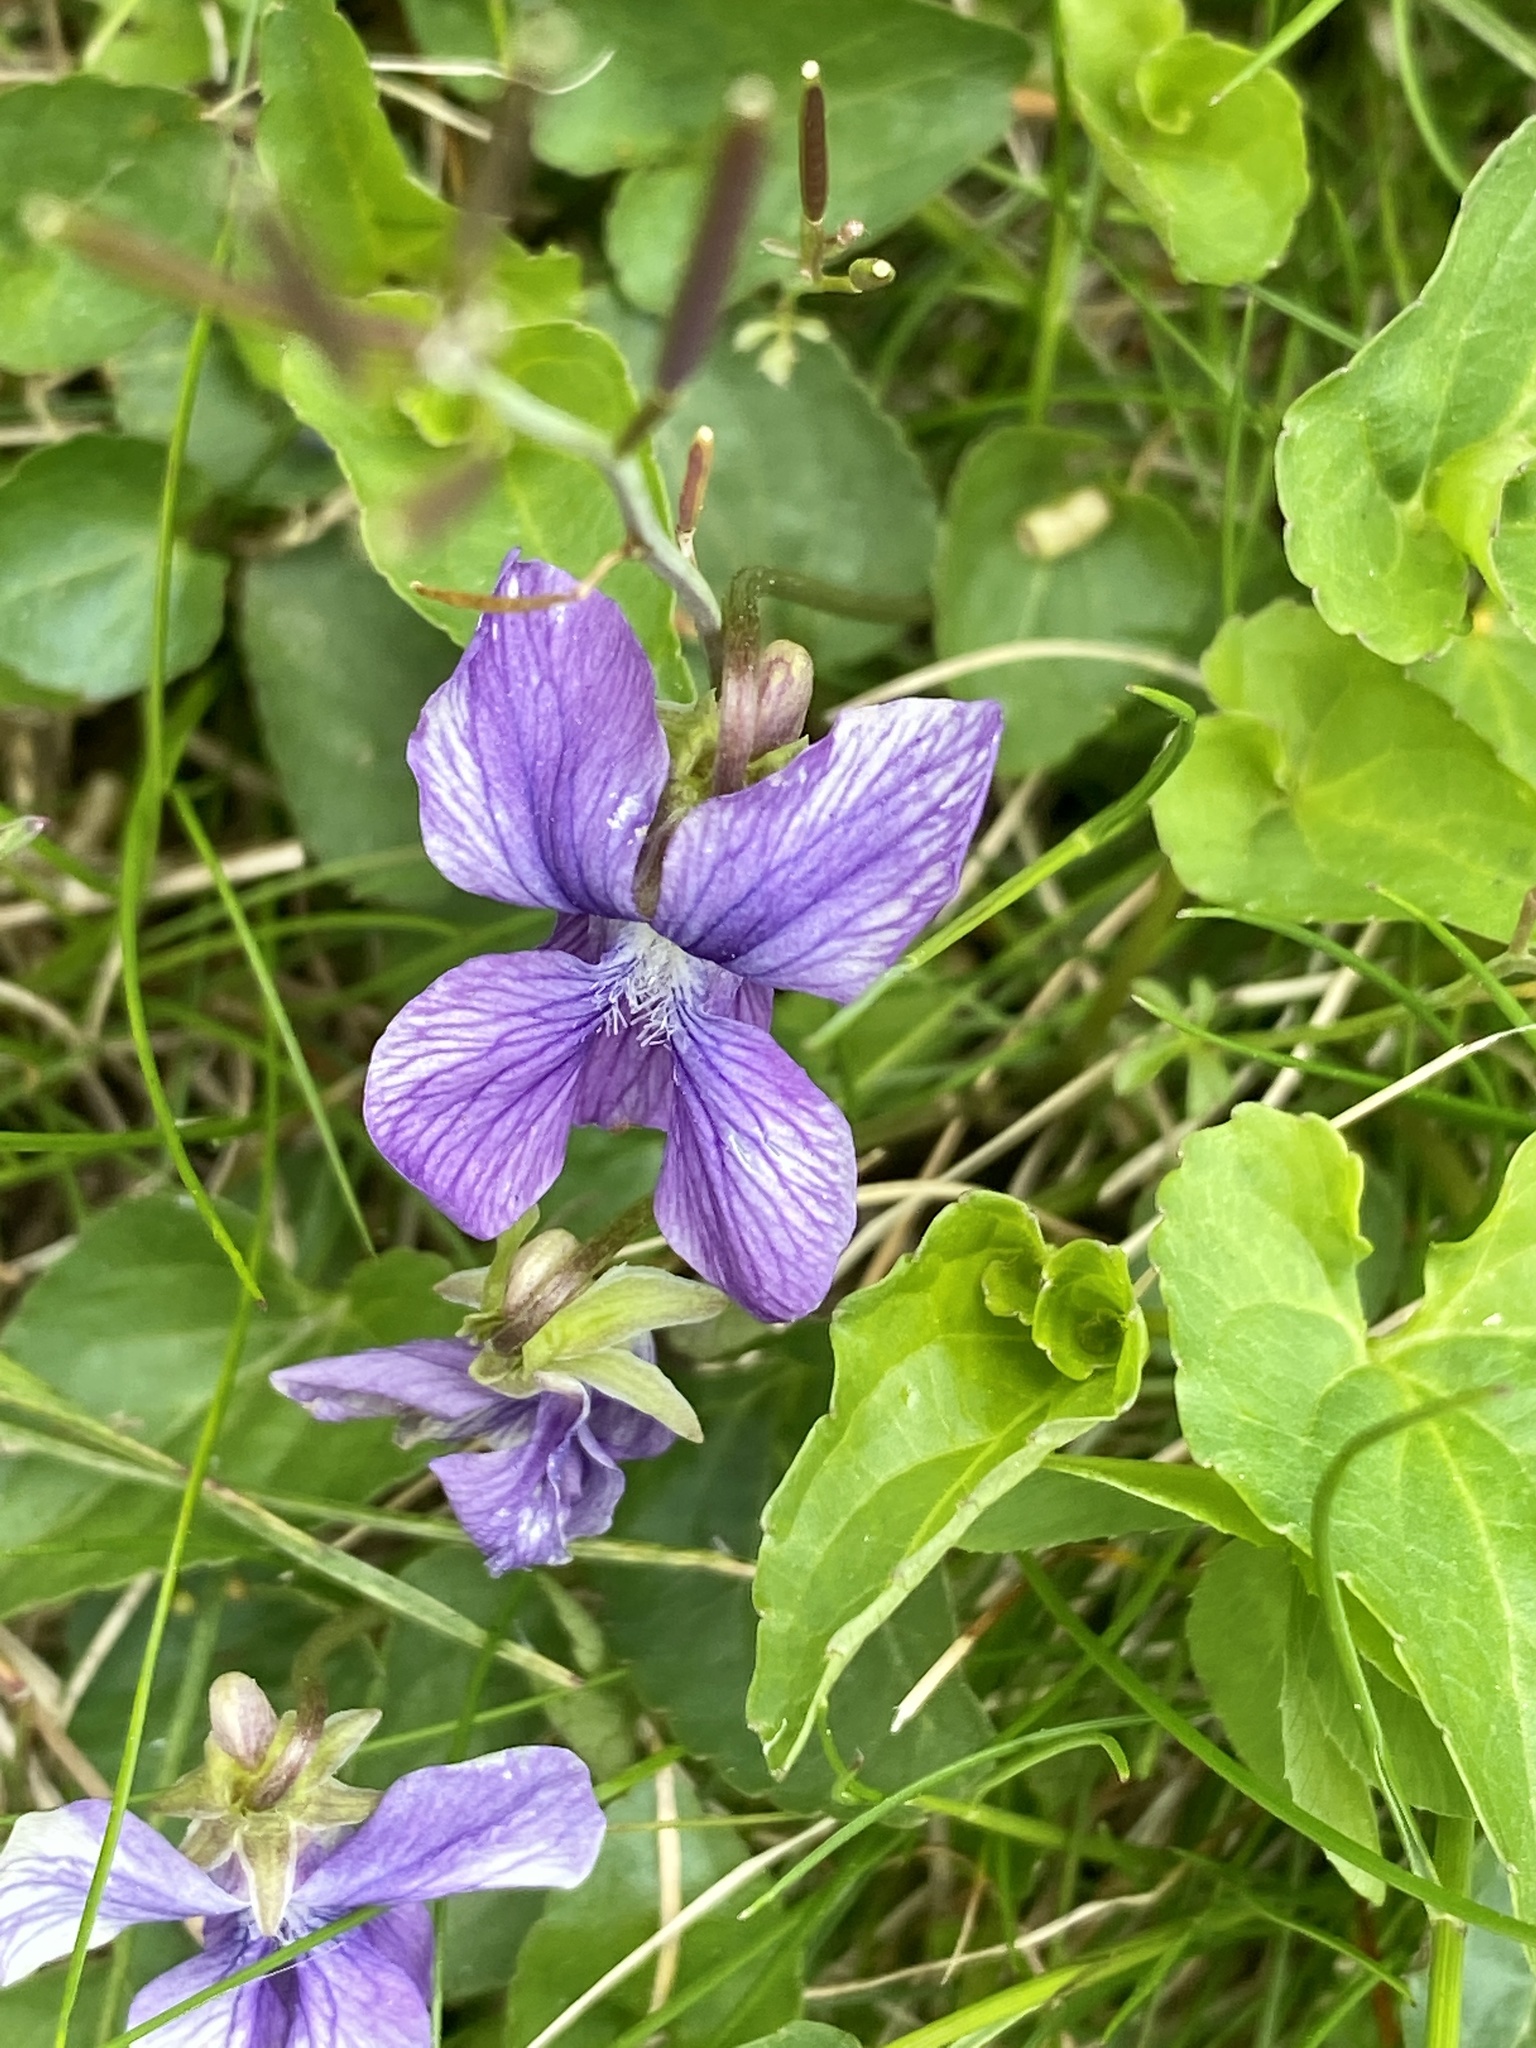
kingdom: Plantae
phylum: Tracheophyta
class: Magnoliopsida
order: Malpighiales
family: Violaceae
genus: Viola
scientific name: Viola sororia
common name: Dooryard violet
